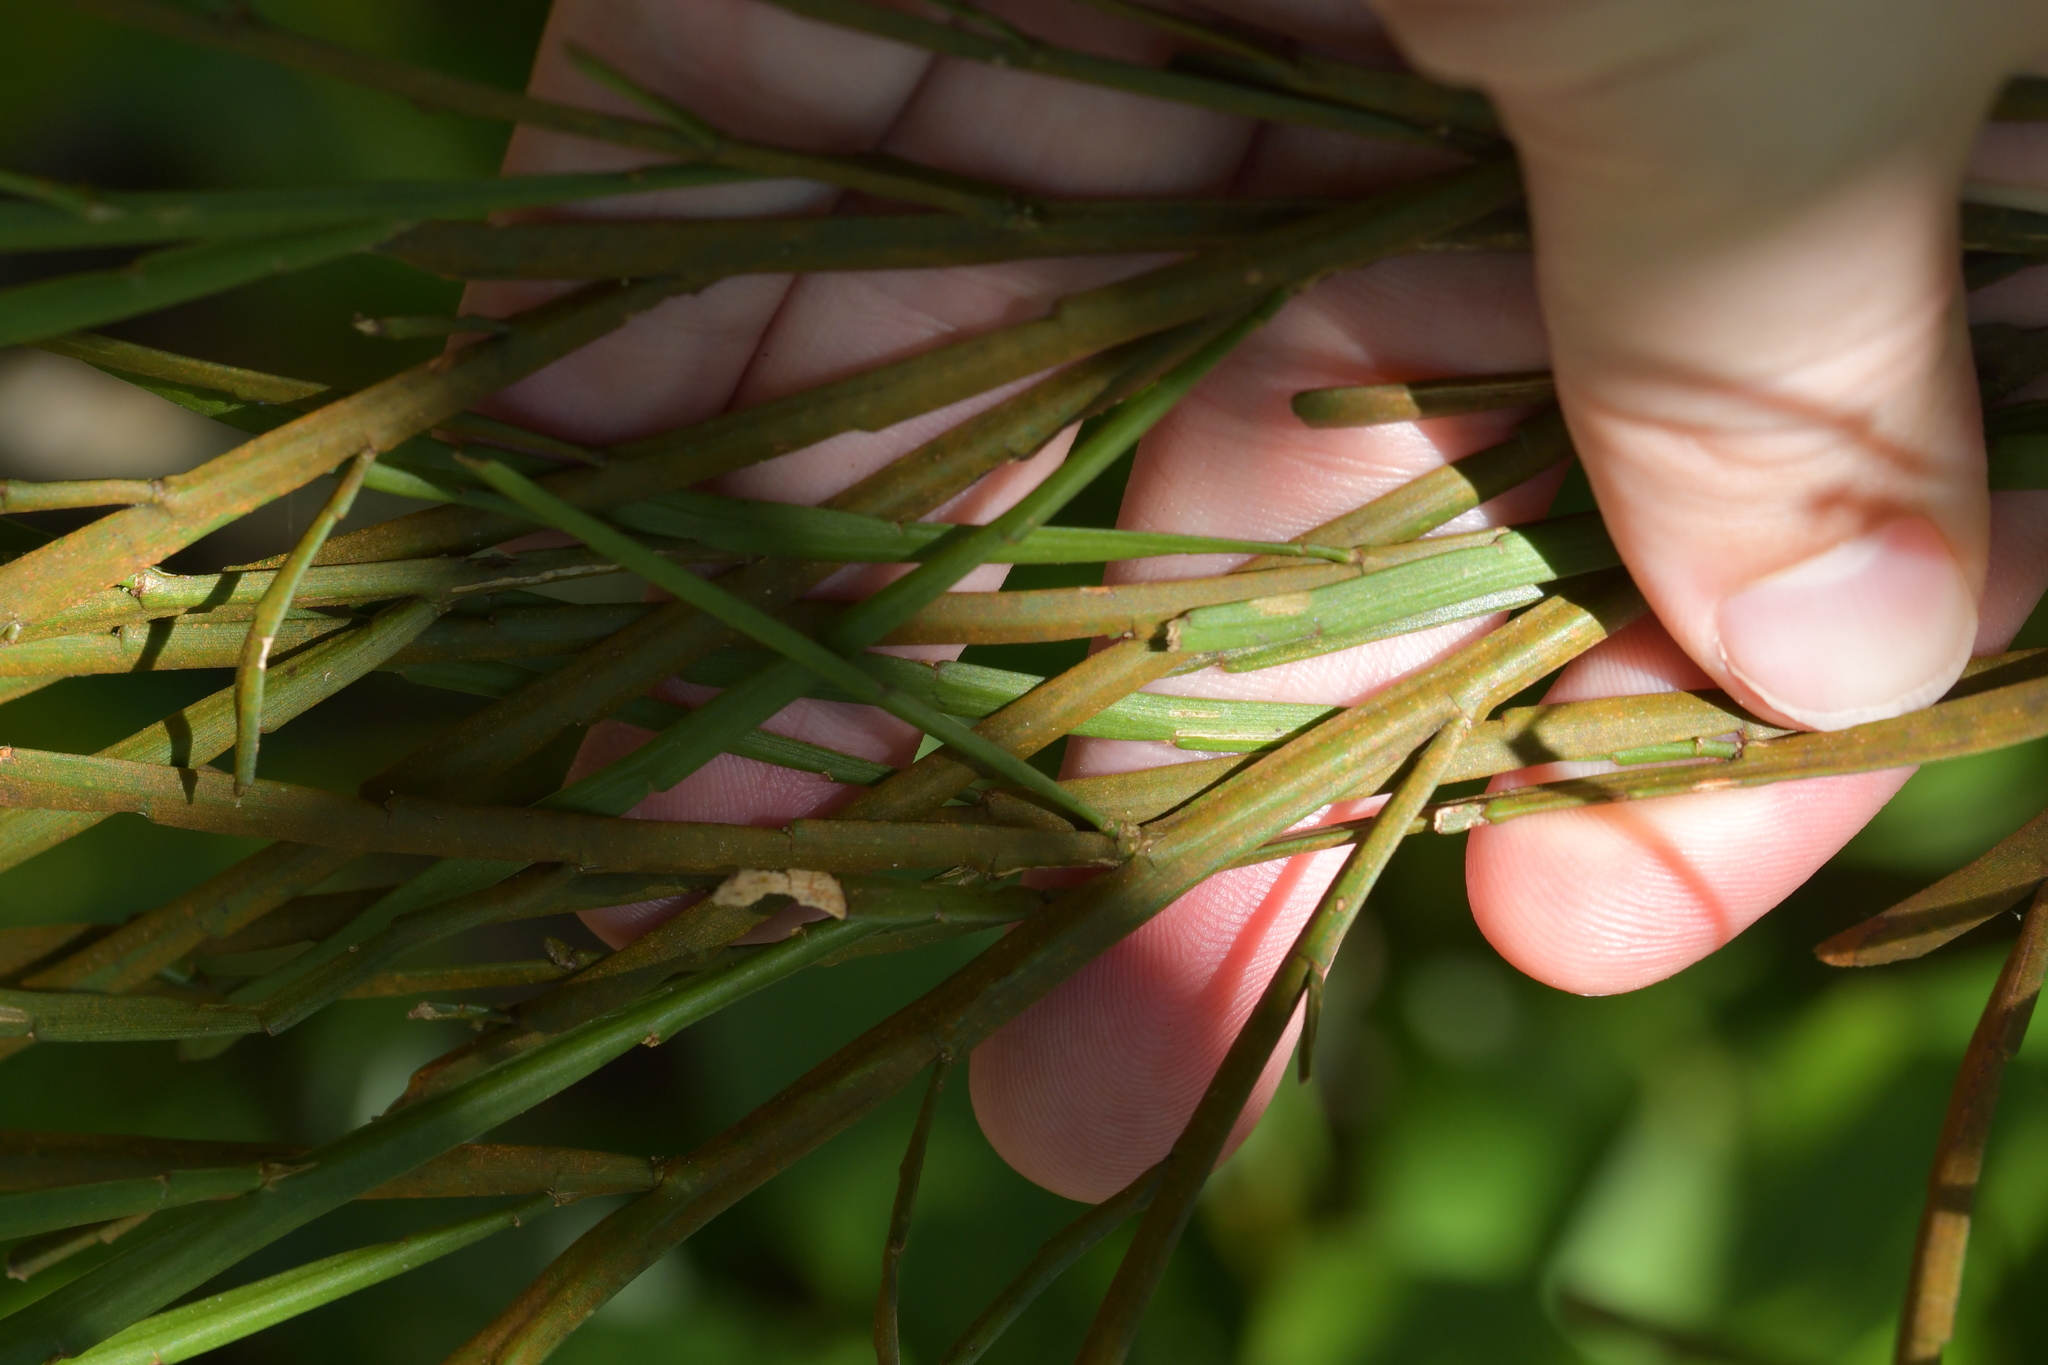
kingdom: Plantae
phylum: Tracheophyta
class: Magnoliopsida
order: Fabales
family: Fabaceae
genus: Carmichaelia
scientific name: Carmichaelia australis
